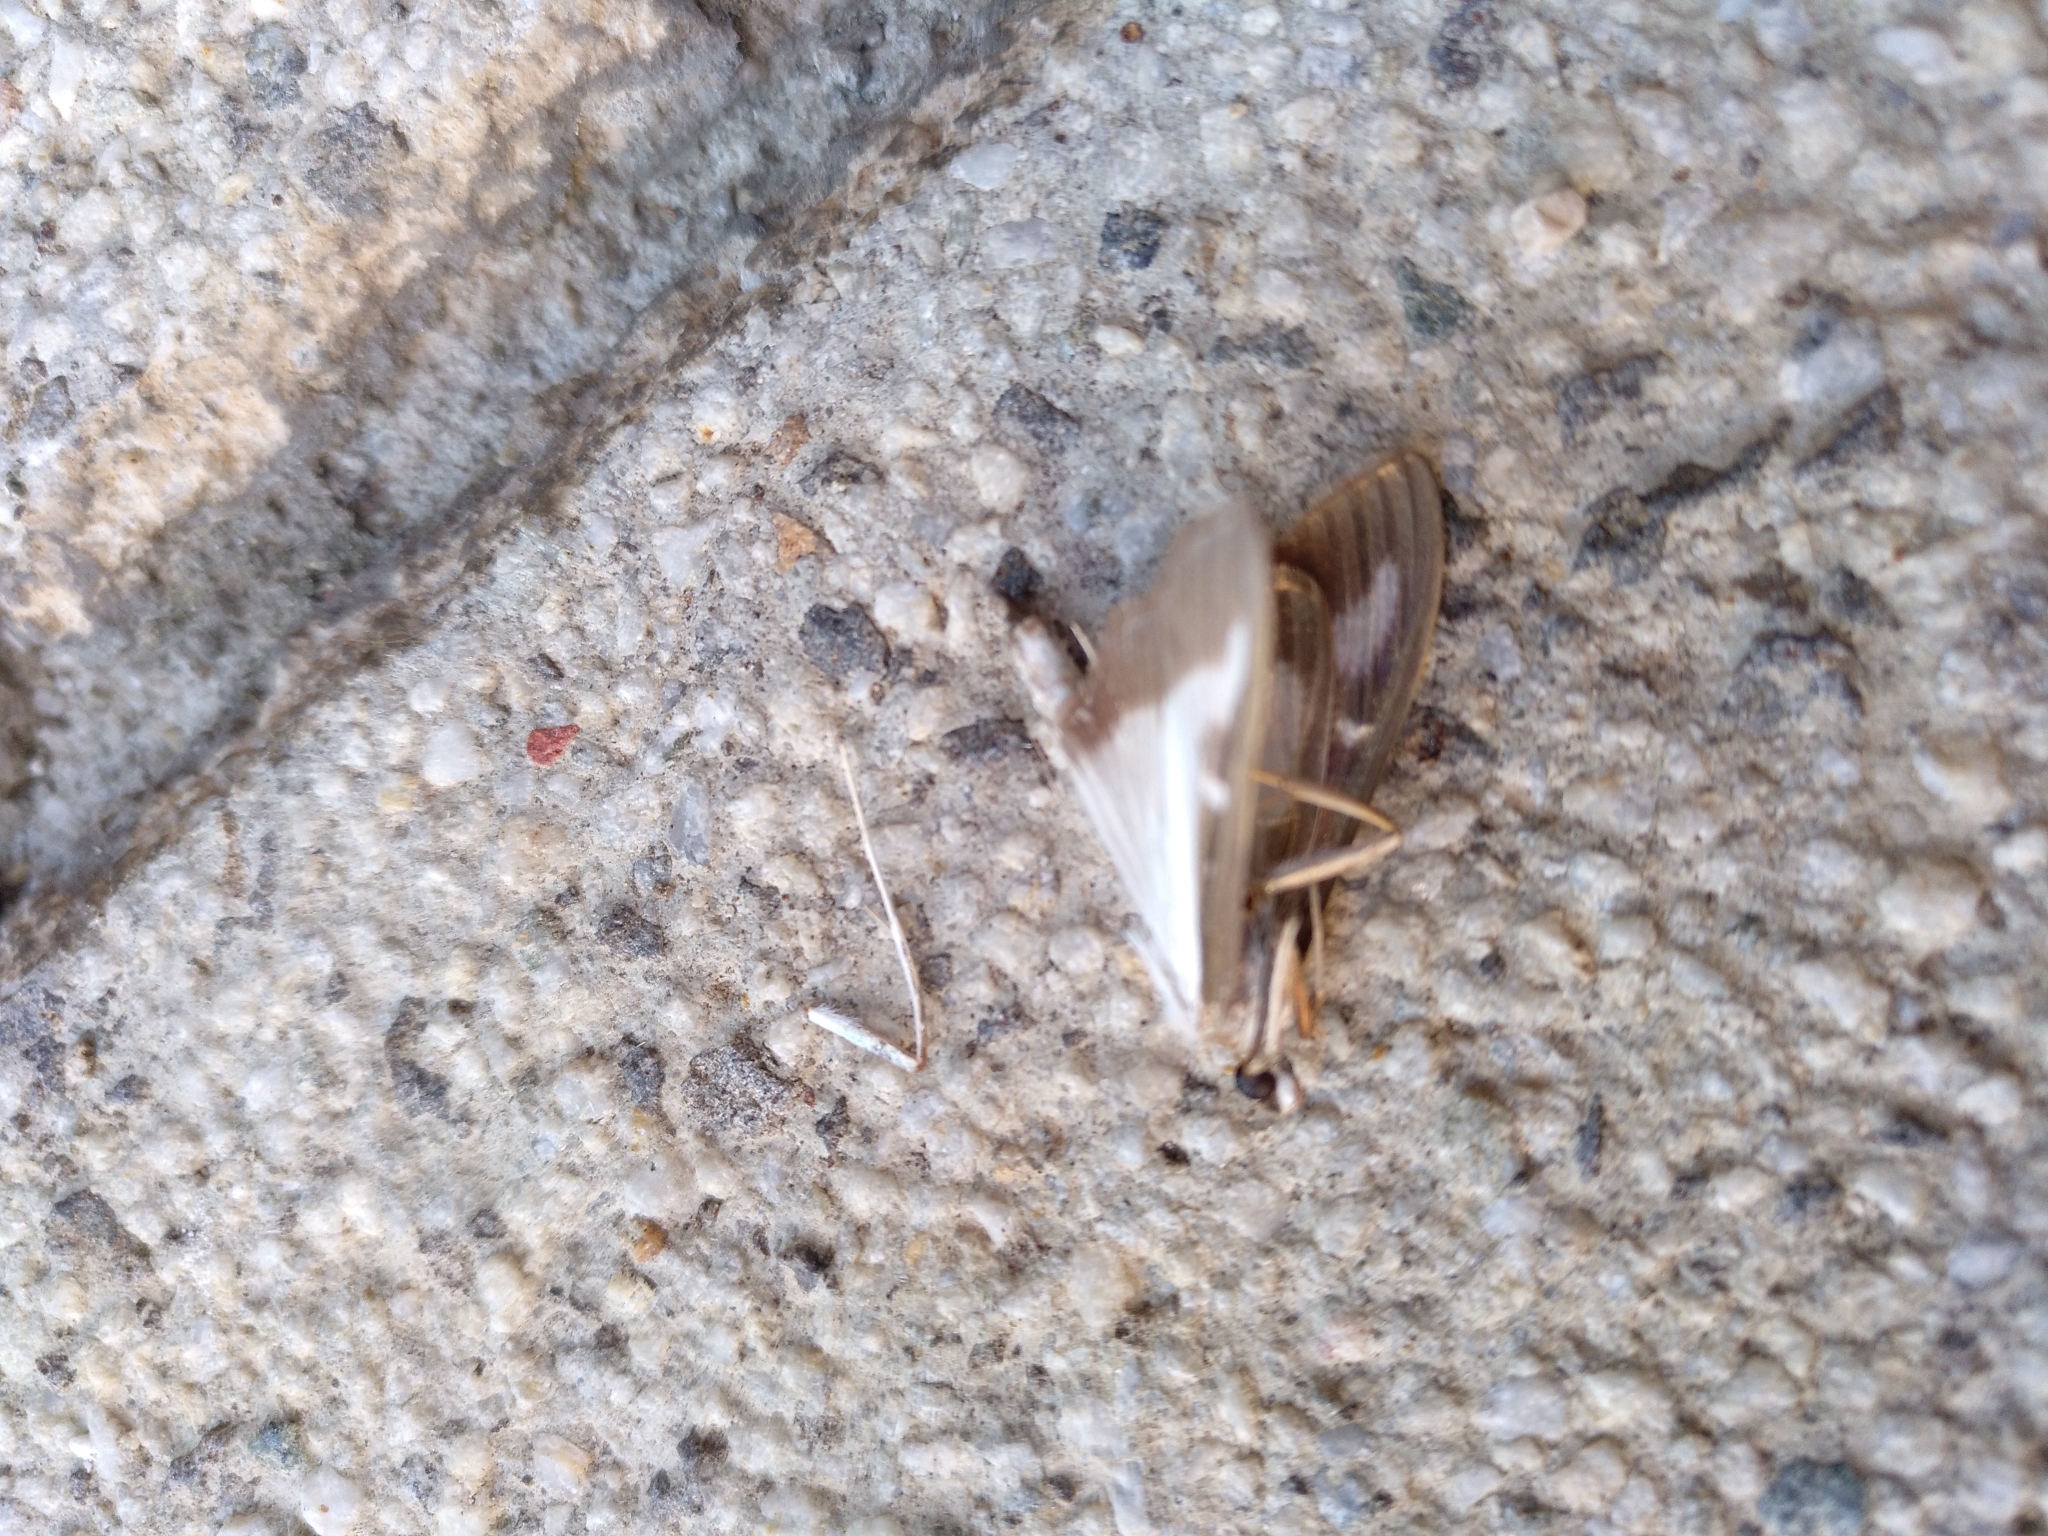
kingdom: Animalia
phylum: Arthropoda
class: Insecta
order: Lepidoptera
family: Crambidae
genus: Cydalima
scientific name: Cydalima perspectalis
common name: Box tree moth
